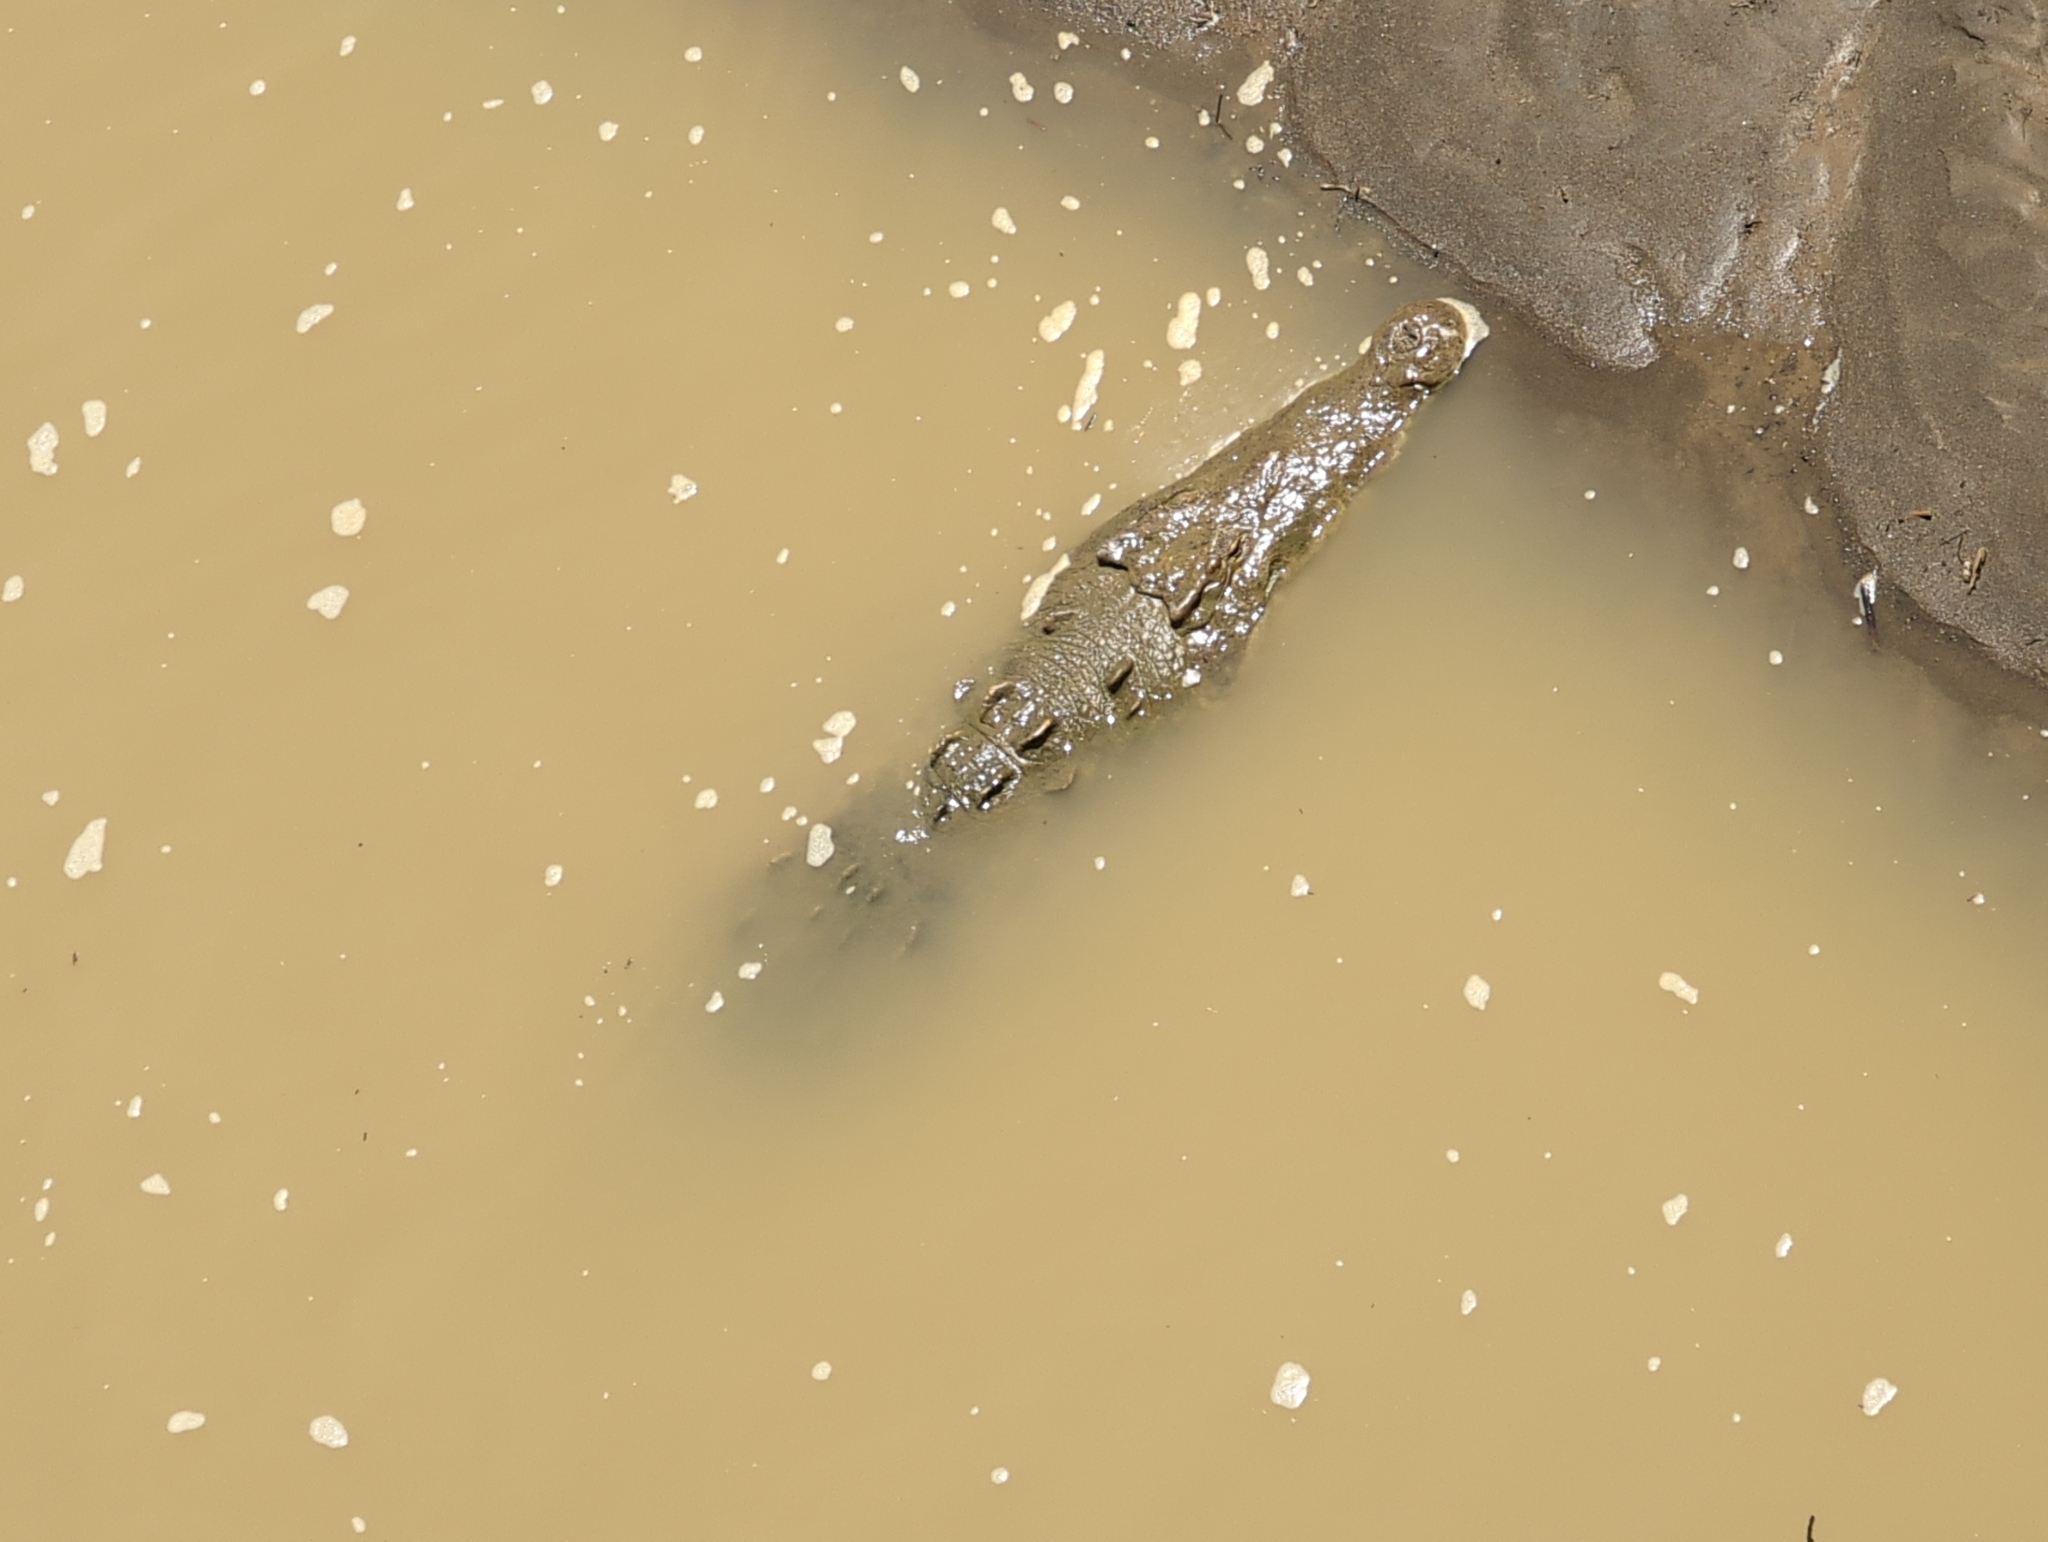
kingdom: Animalia
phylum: Chordata
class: Crocodylia
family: Crocodylidae
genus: Crocodylus
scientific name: Crocodylus acutus
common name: American crocodile
